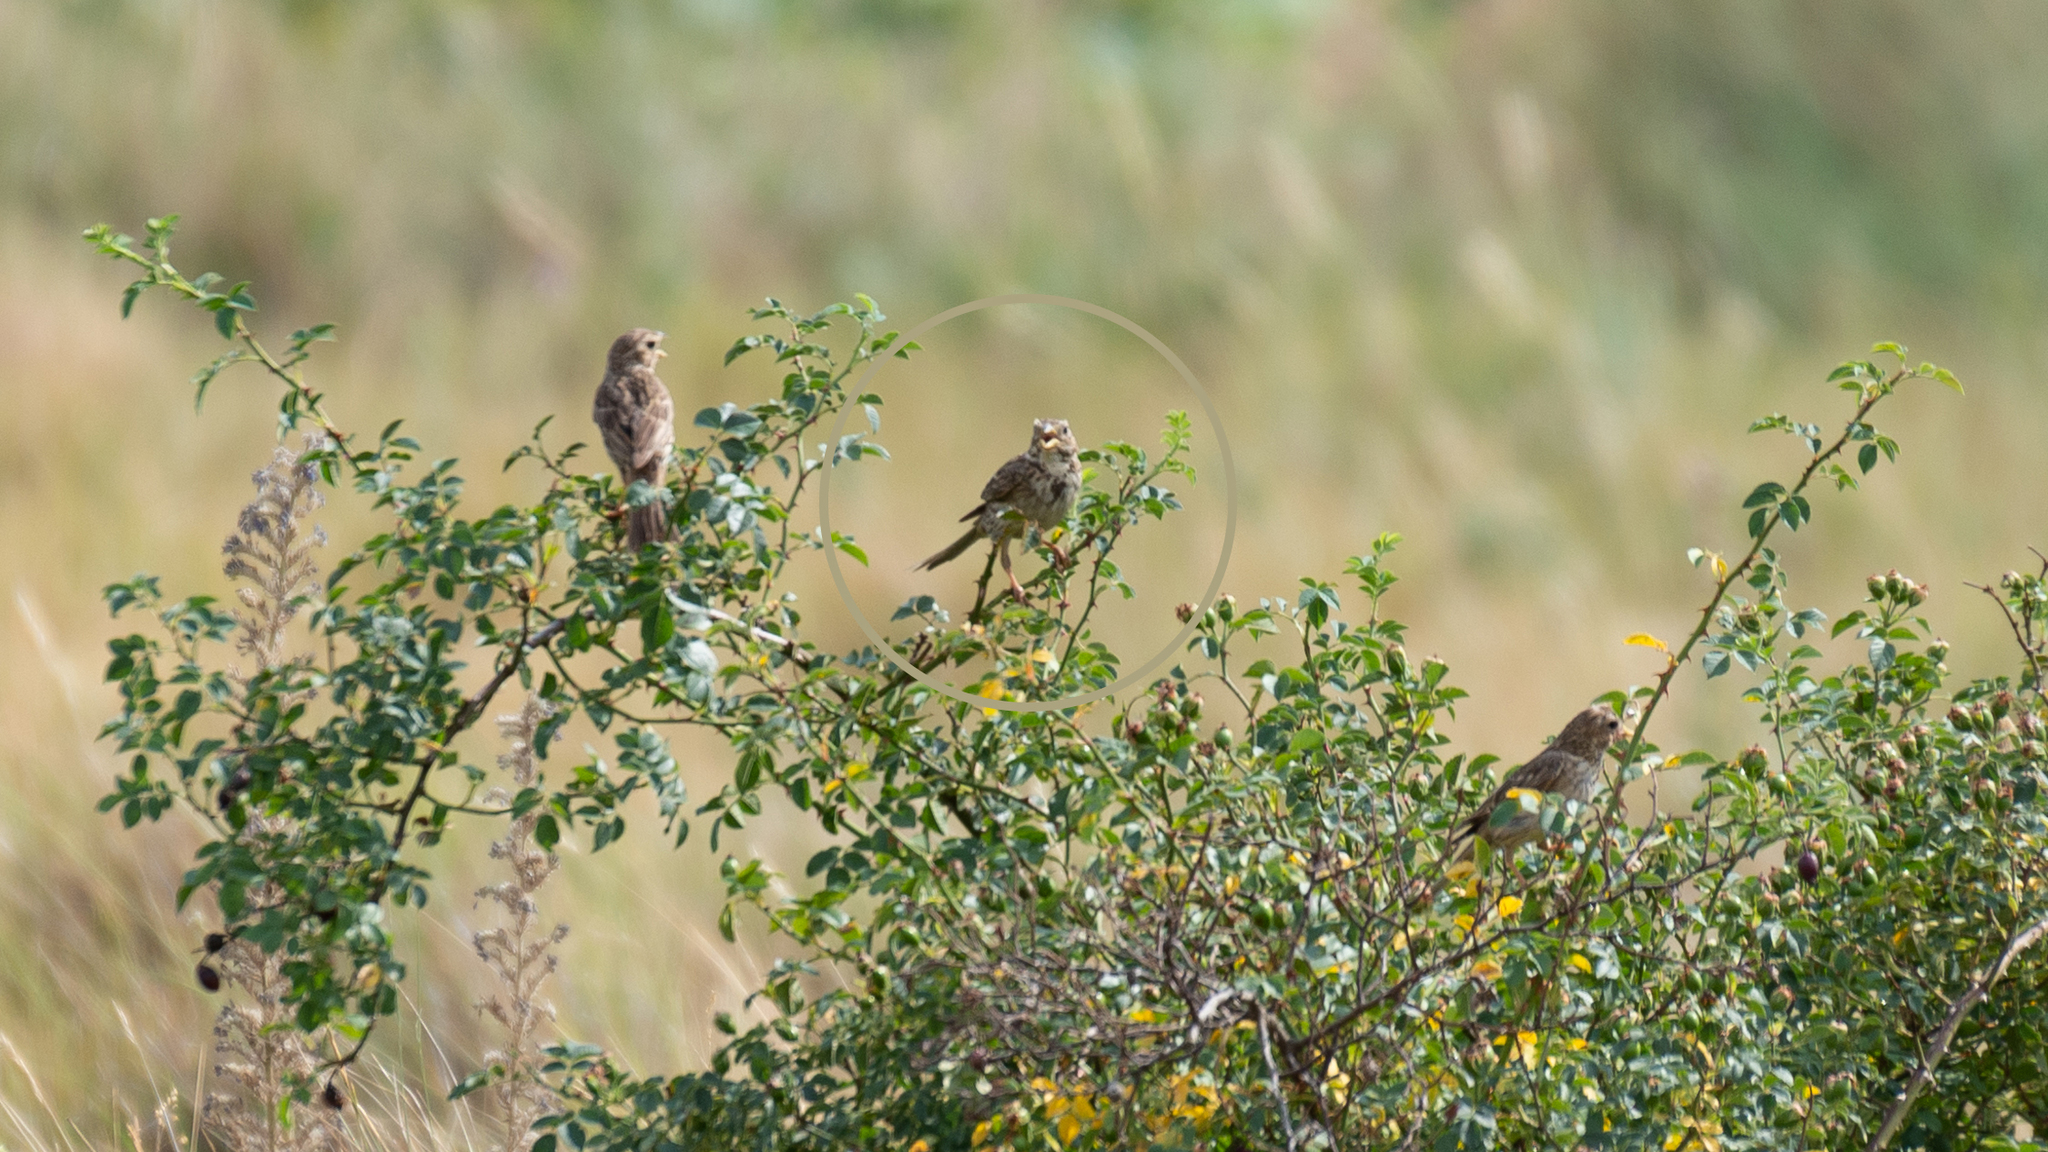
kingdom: Animalia
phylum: Chordata
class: Aves
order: Passeriformes
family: Emberizidae
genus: Emberiza
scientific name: Emberiza calandra
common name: Corn bunting
